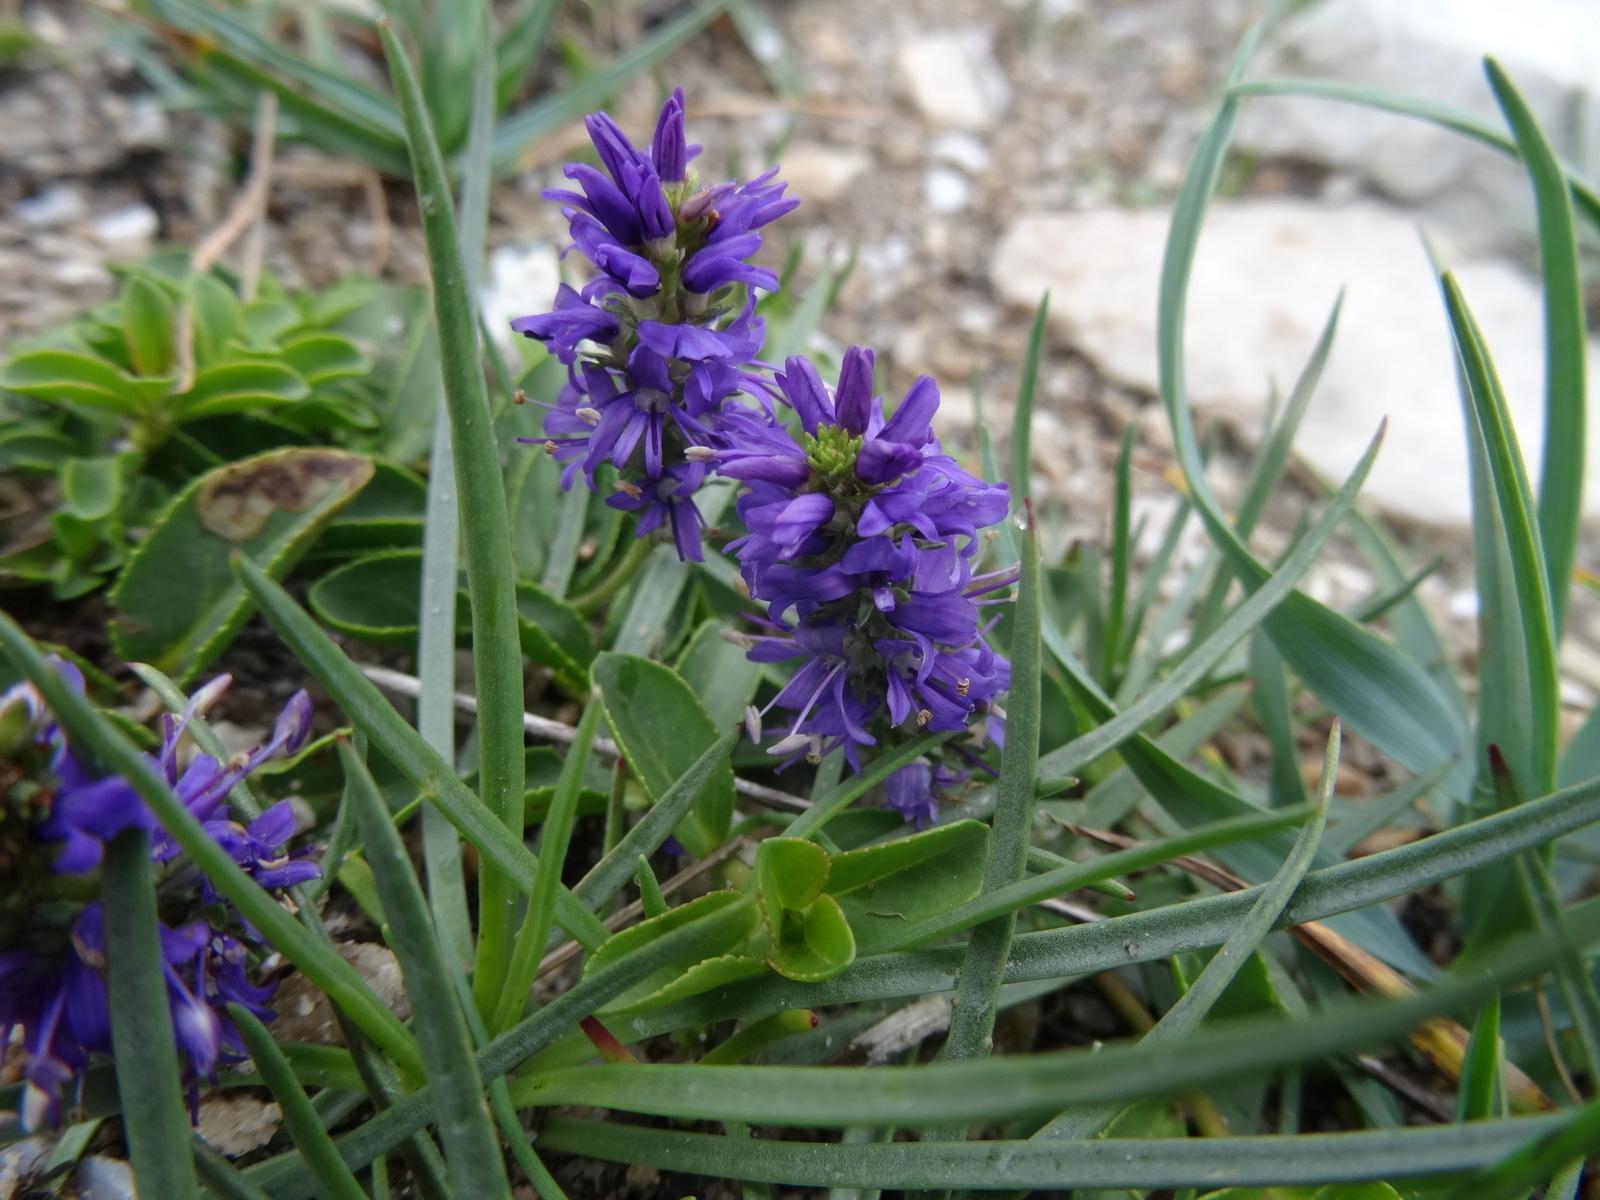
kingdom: Plantae
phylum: Tracheophyta
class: Magnoliopsida
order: Lamiales
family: Plantaginaceae
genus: Veronica
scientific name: Veronica allionii
